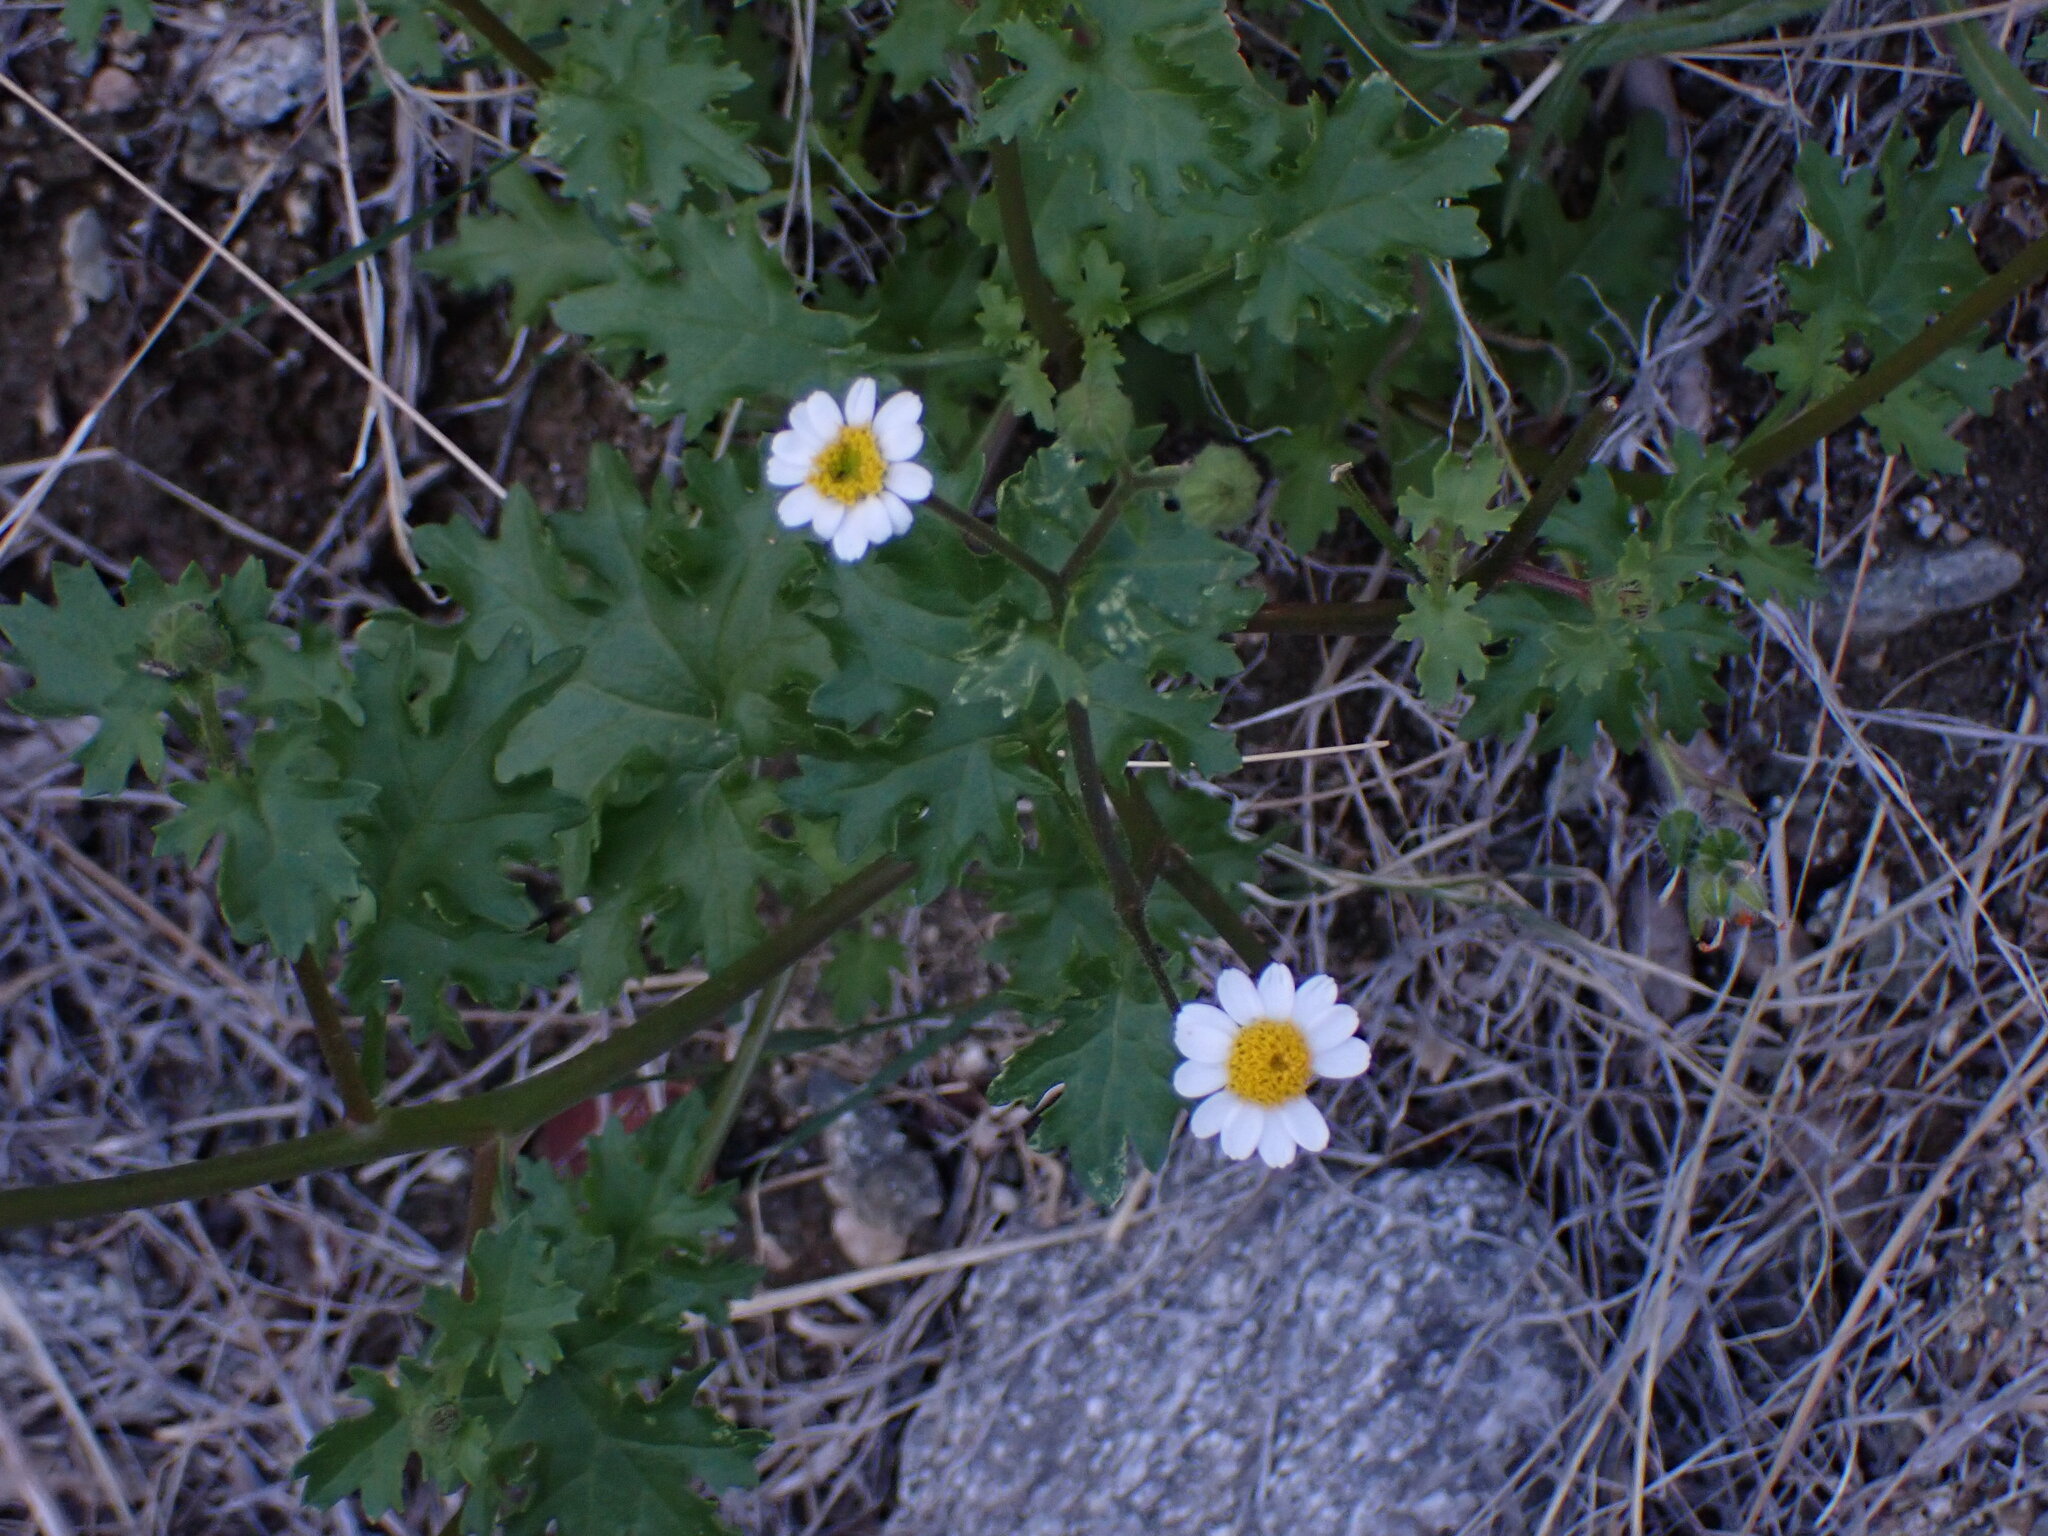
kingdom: Plantae
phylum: Tracheophyta
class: Magnoliopsida
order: Asterales
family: Asteraceae
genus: Laphamia
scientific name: Laphamia emoryi
